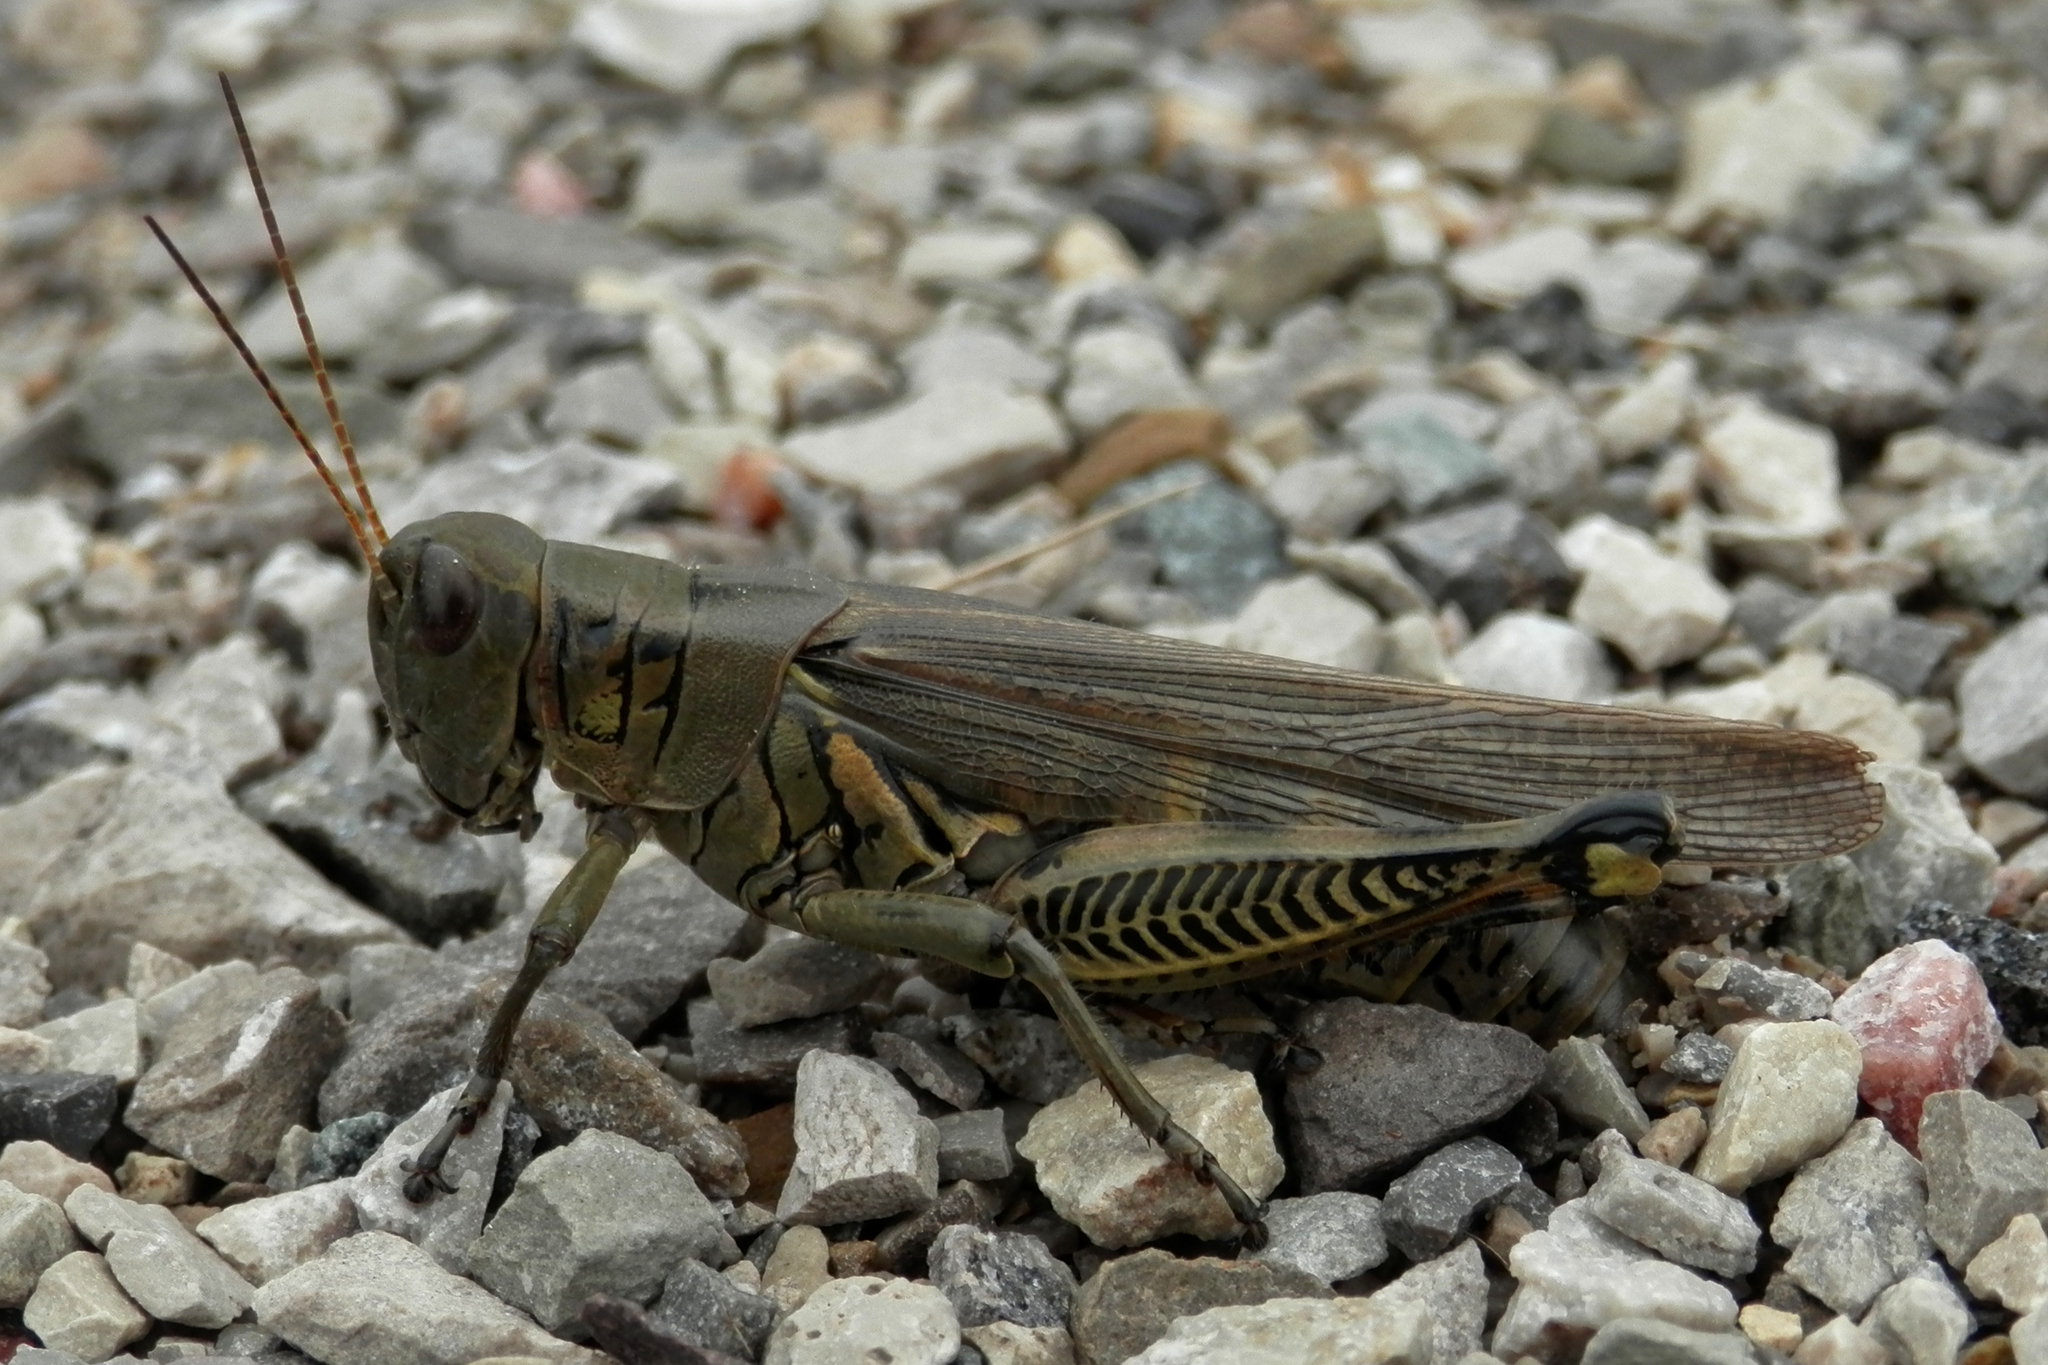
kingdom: Animalia
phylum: Arthropoda
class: Insecta
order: Orthoptera
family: Acrididae
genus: Melanoplus
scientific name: Melanoplus differentialis
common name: Differential grasshopper
